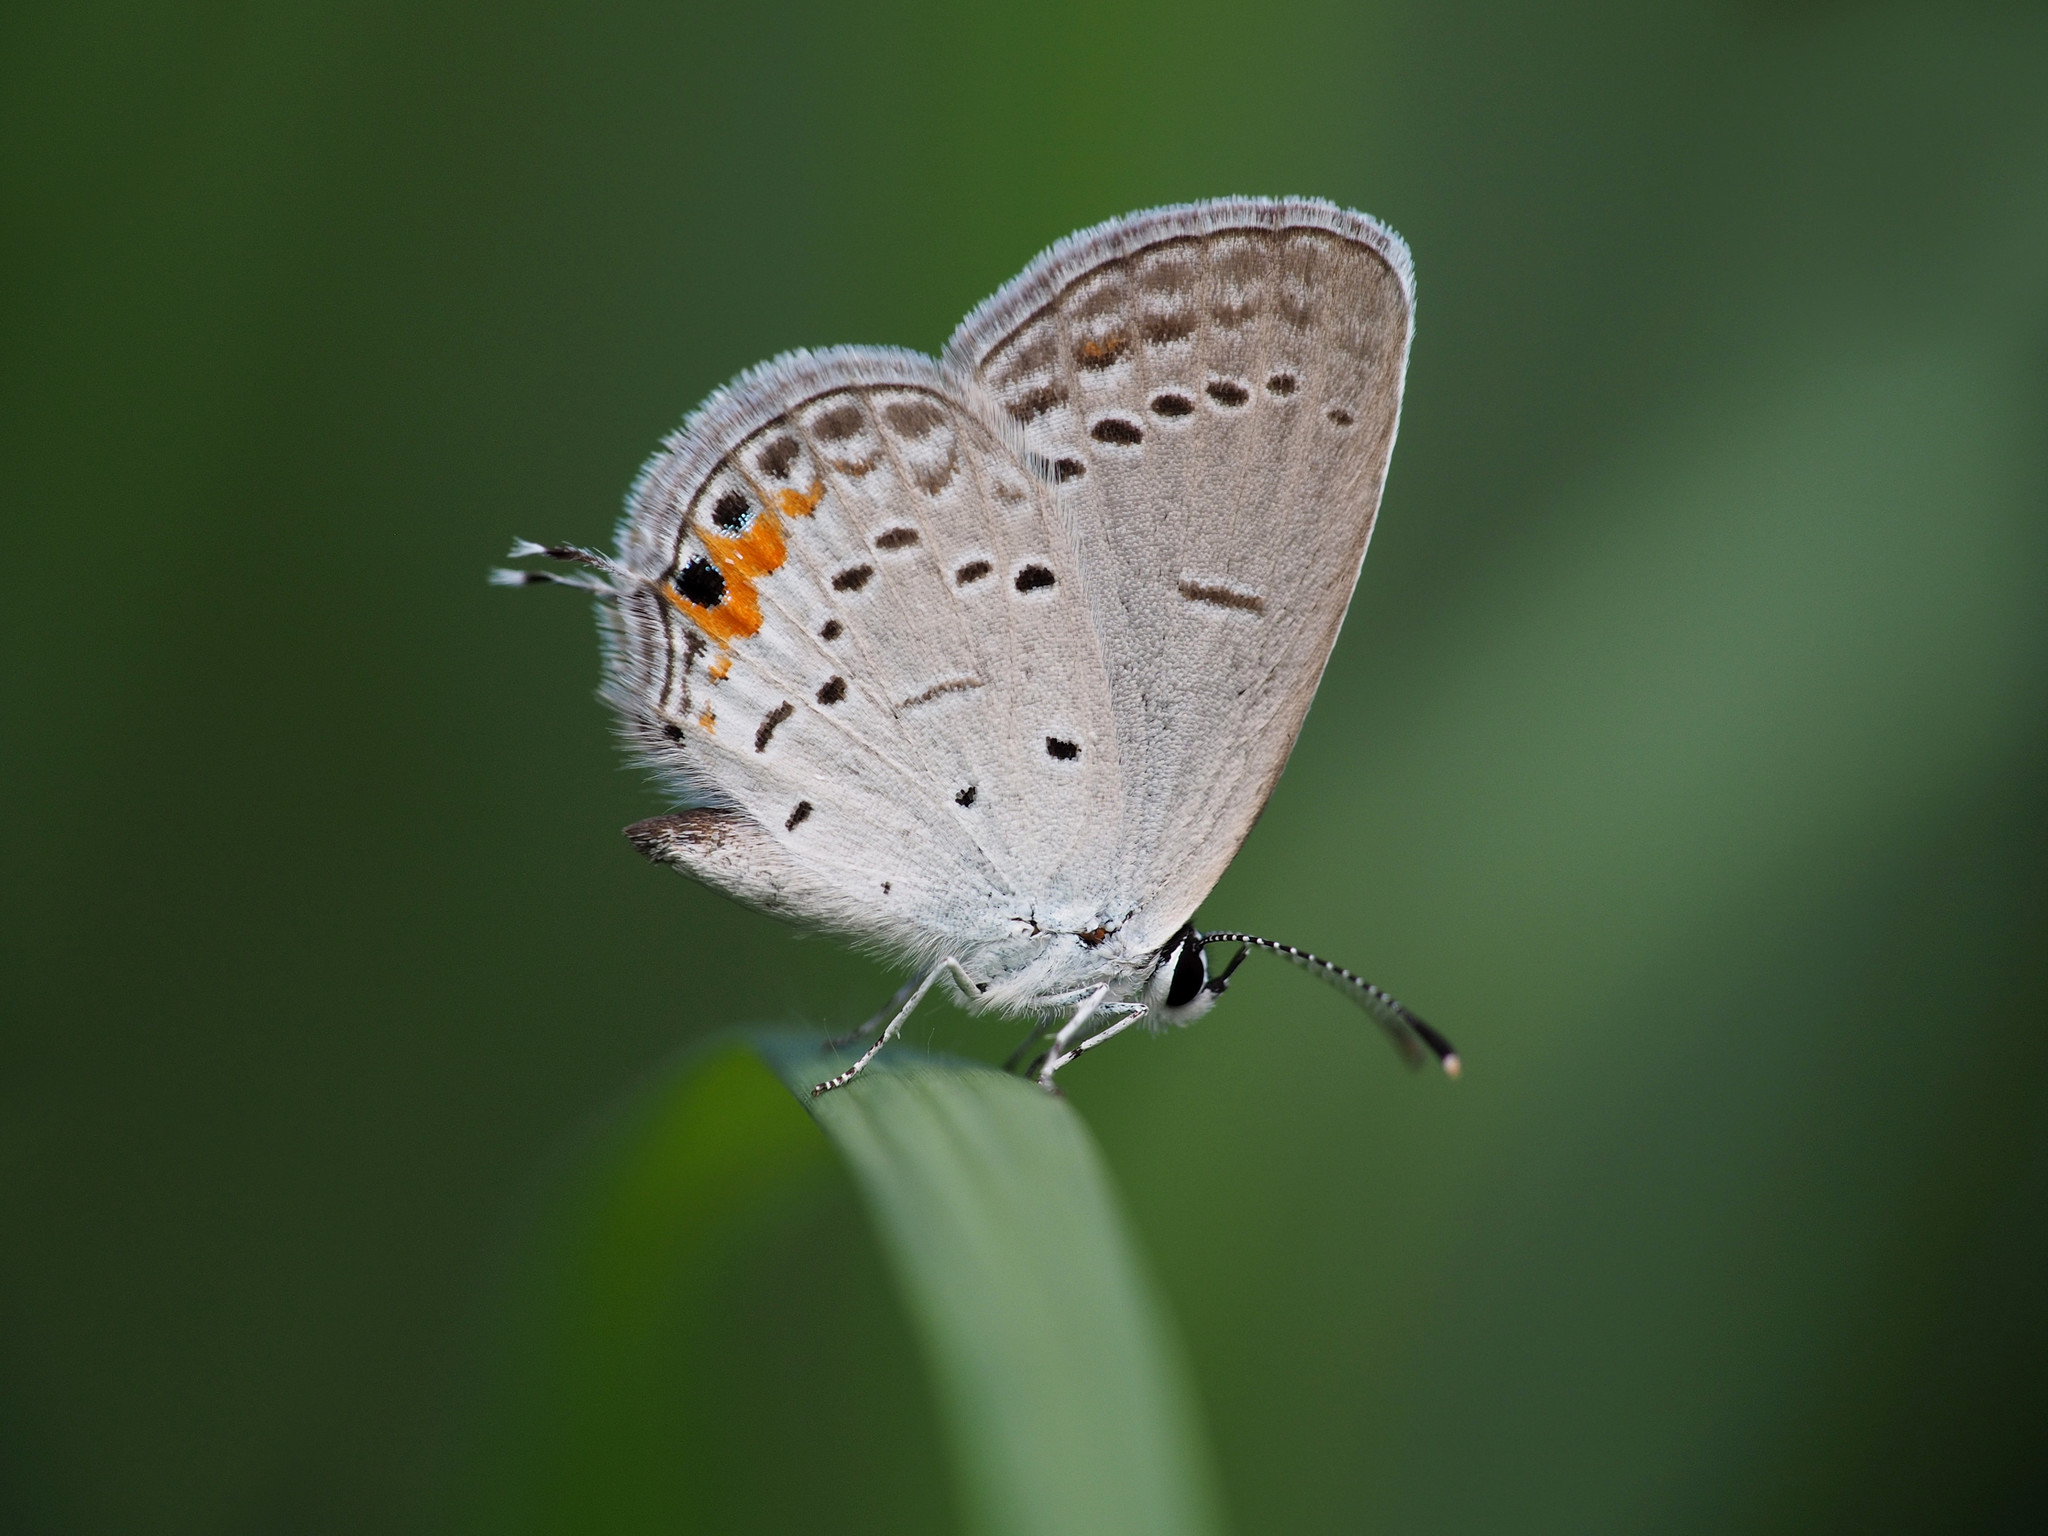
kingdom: Animalia
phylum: Arthropoda
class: Insecta
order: Lepidoptera
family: Lycaenidae
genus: Elkalyce
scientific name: Elkalyce comyntas
